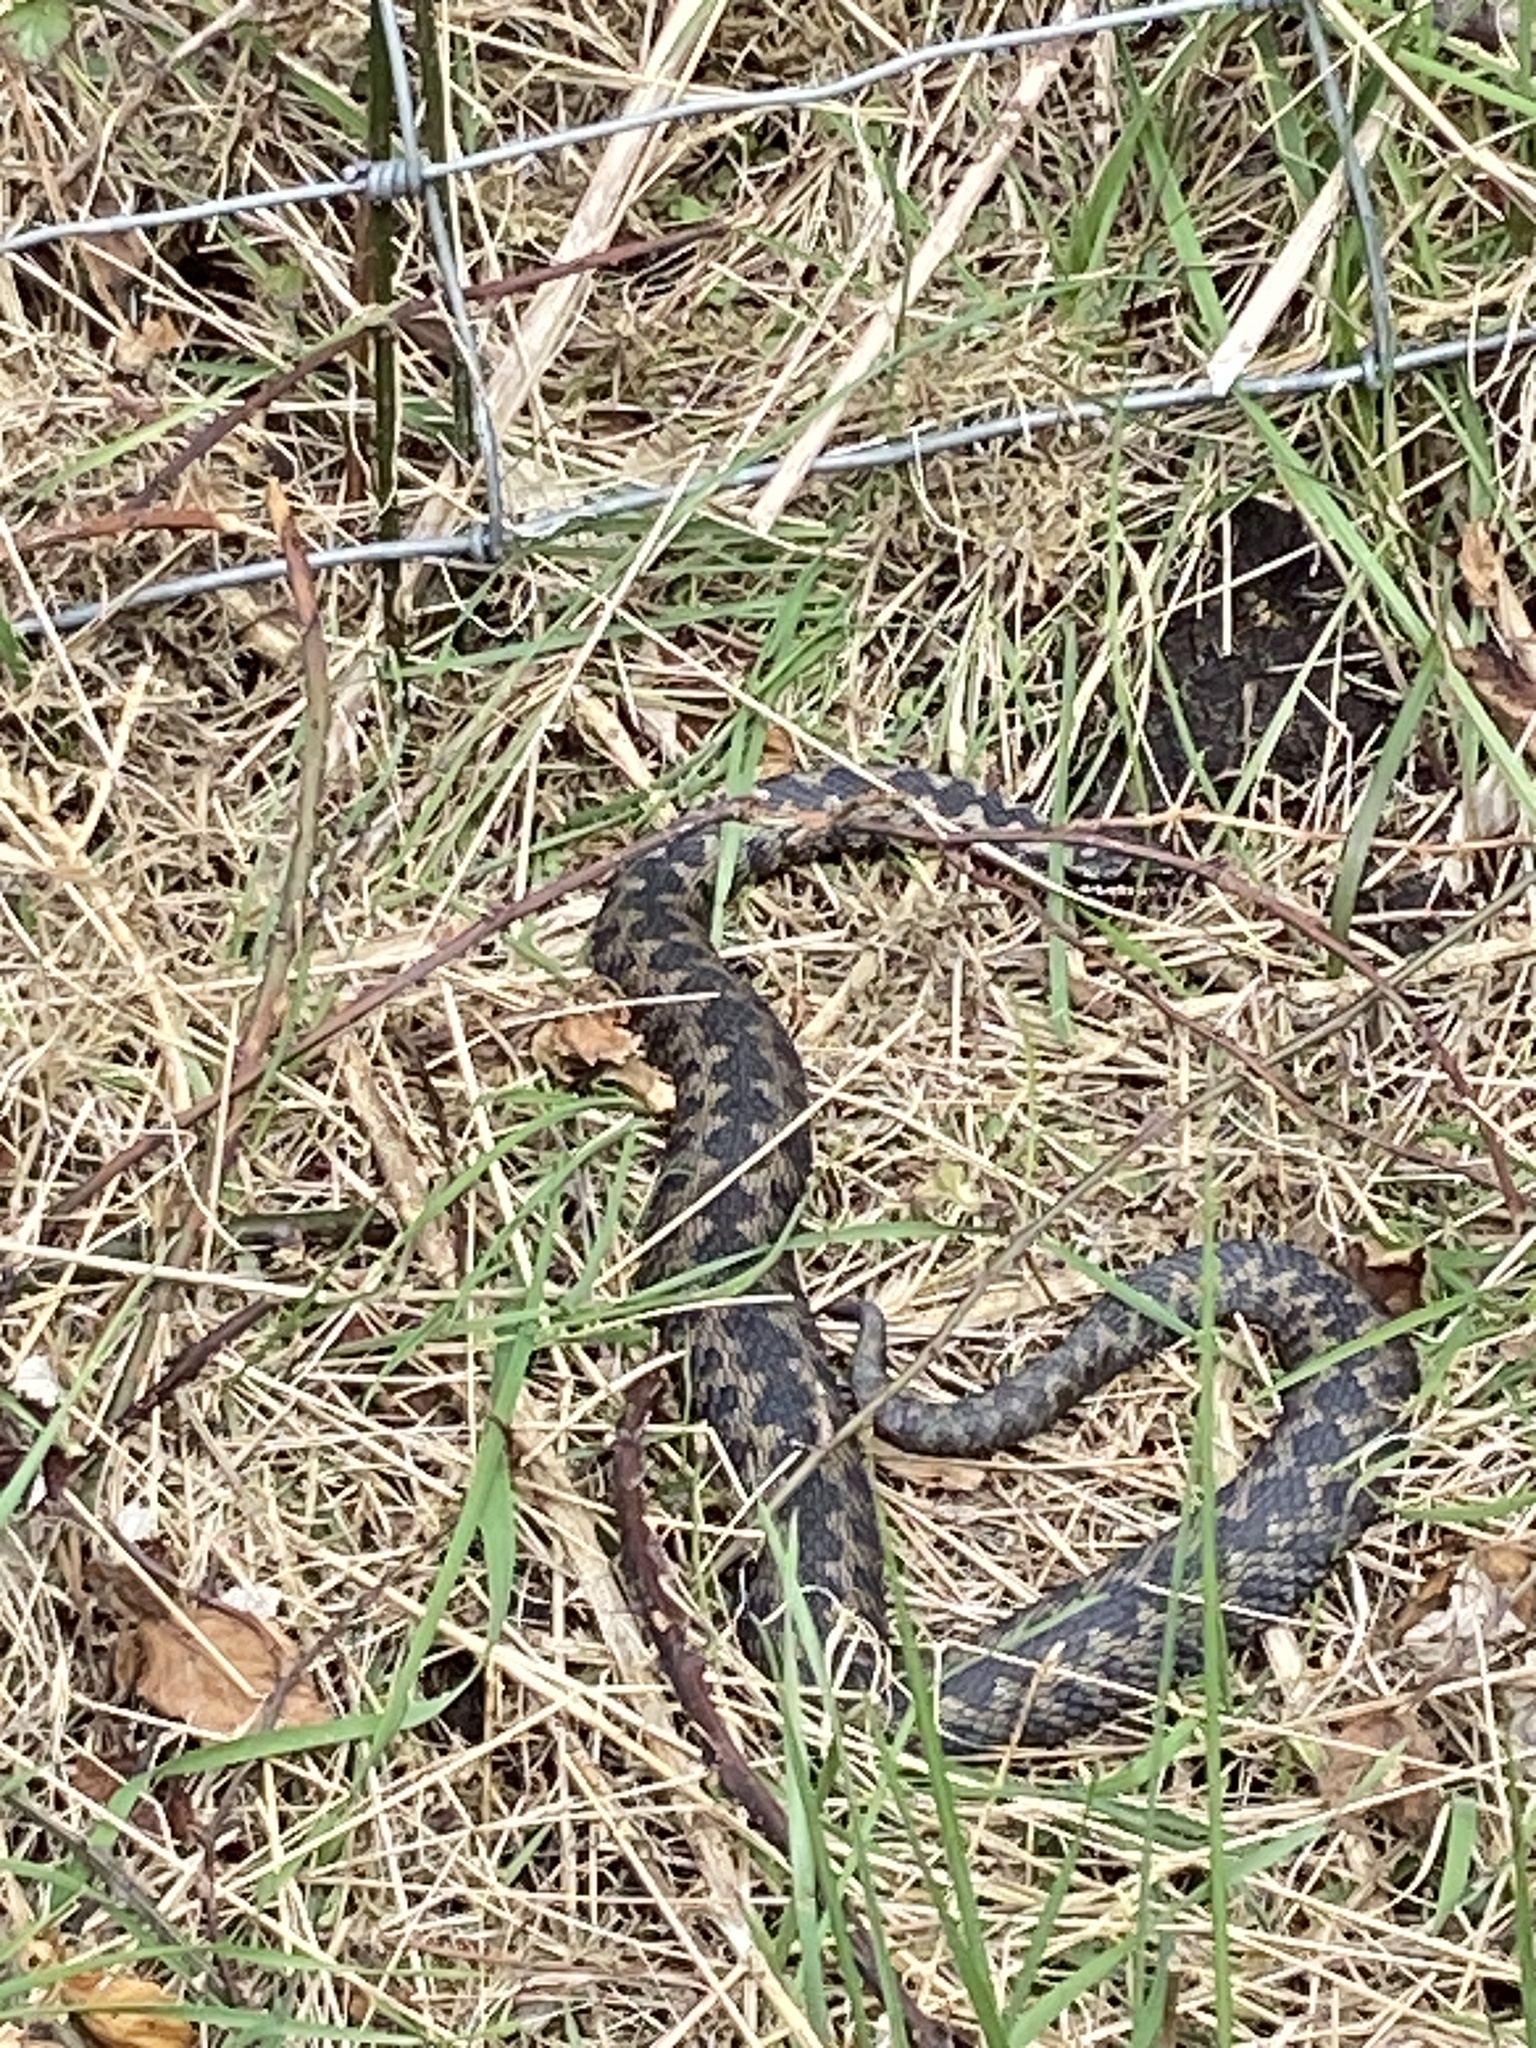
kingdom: Animalia
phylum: Chordata
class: Squamata
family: Viperidae
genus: Vipera
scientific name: Vipera berus
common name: Adder
